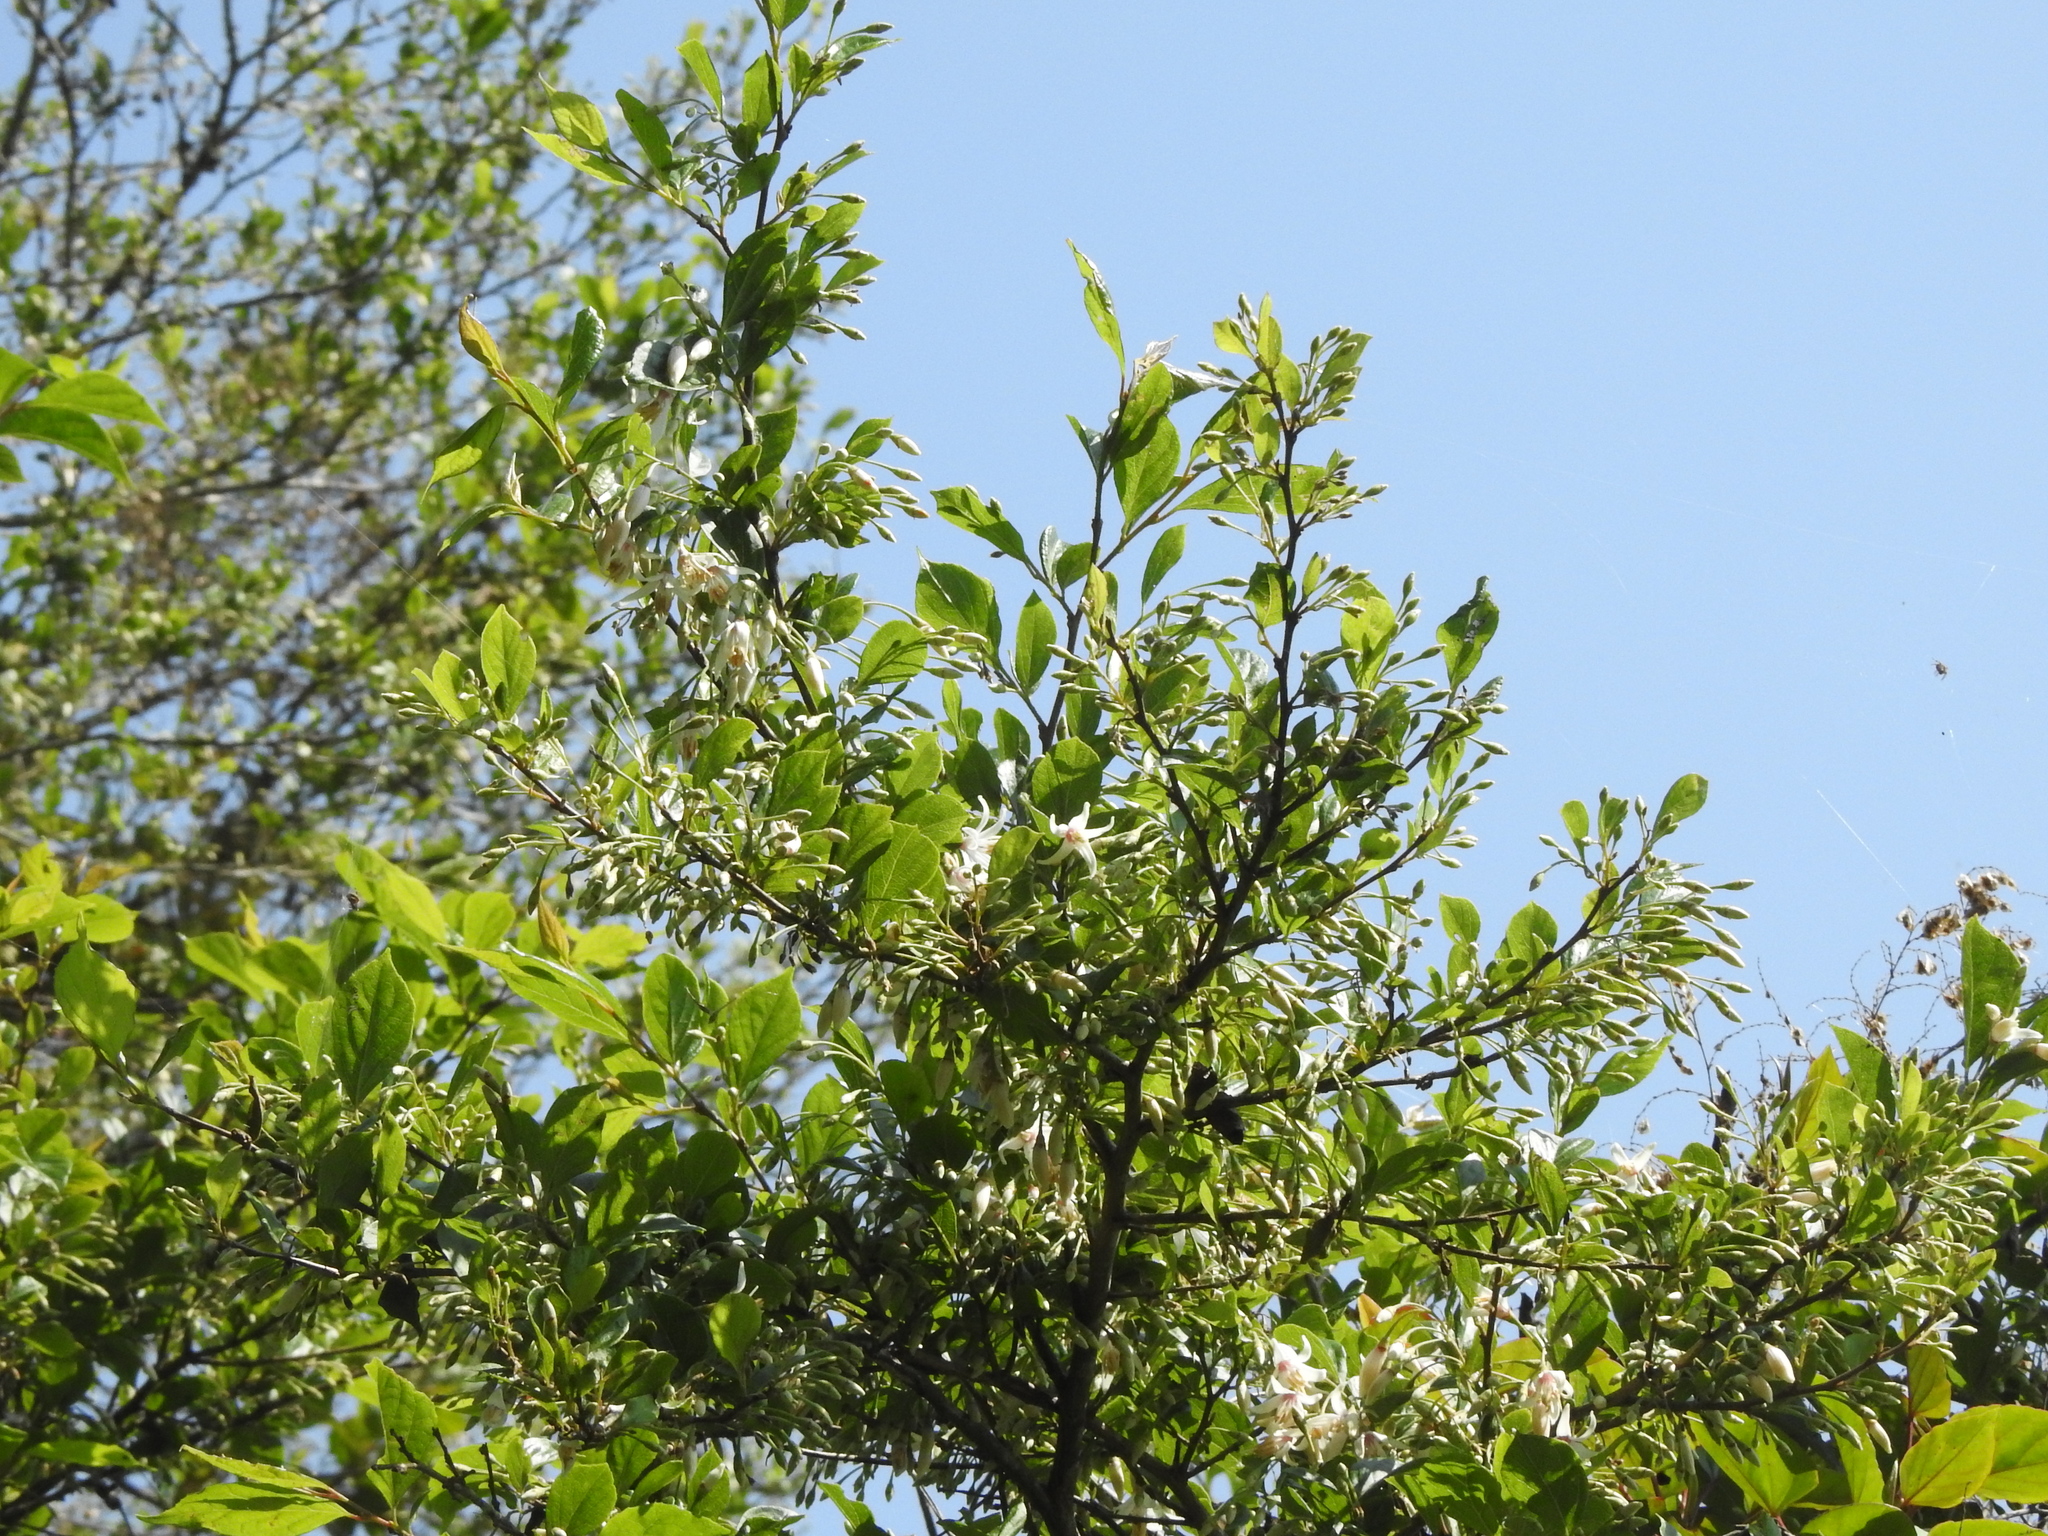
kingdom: Plantae
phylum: Tracheophyta
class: Magnoliopsida
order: Ericales
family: Styracaceae
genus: Styrax
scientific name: Styrax formosanus
